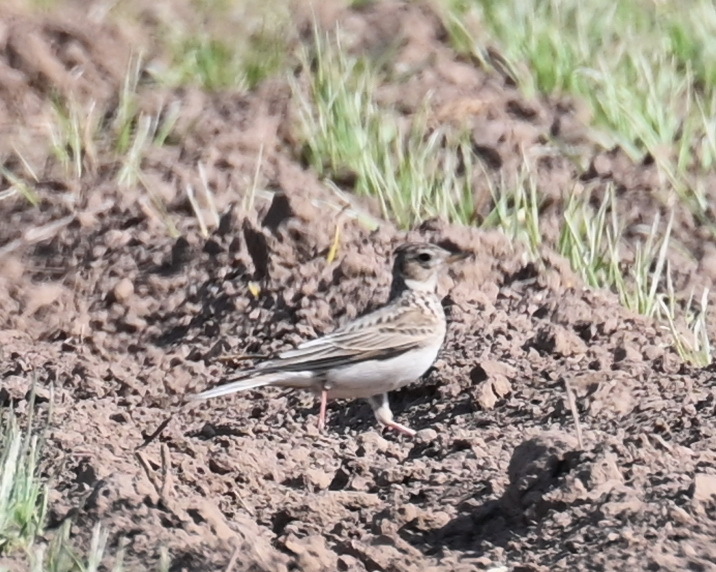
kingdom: Animalia
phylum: Chordata
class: Aves
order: Passeriformes
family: Alaudidae
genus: Alauda
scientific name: Alauda arvensis
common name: Eurasian skylark
